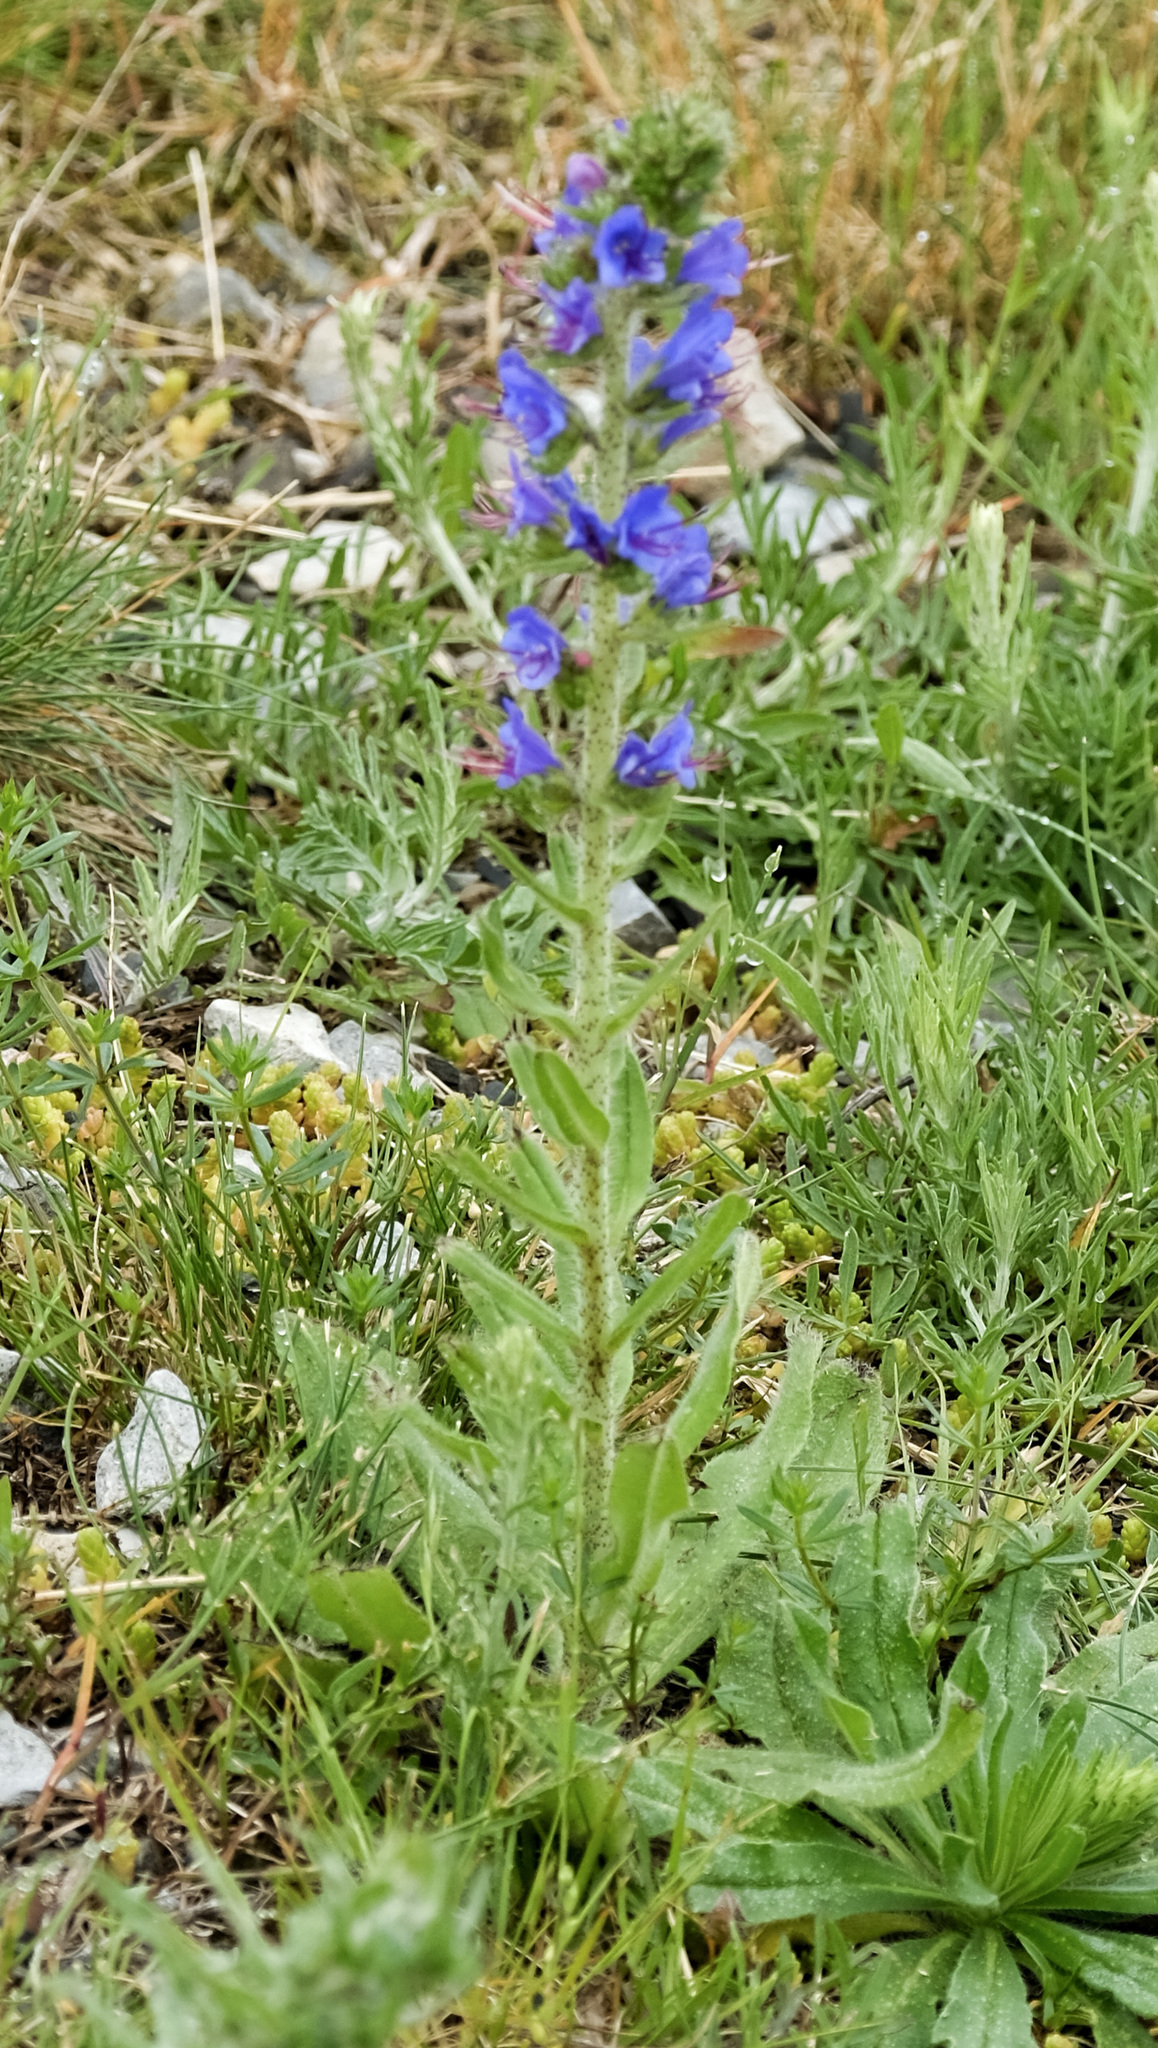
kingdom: Plantae
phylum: Tracheophyta
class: Magnoliopsida
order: Boraginales
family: Boraginaceae
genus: Echium
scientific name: Echium vulgare
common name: Common viper's bugloss
